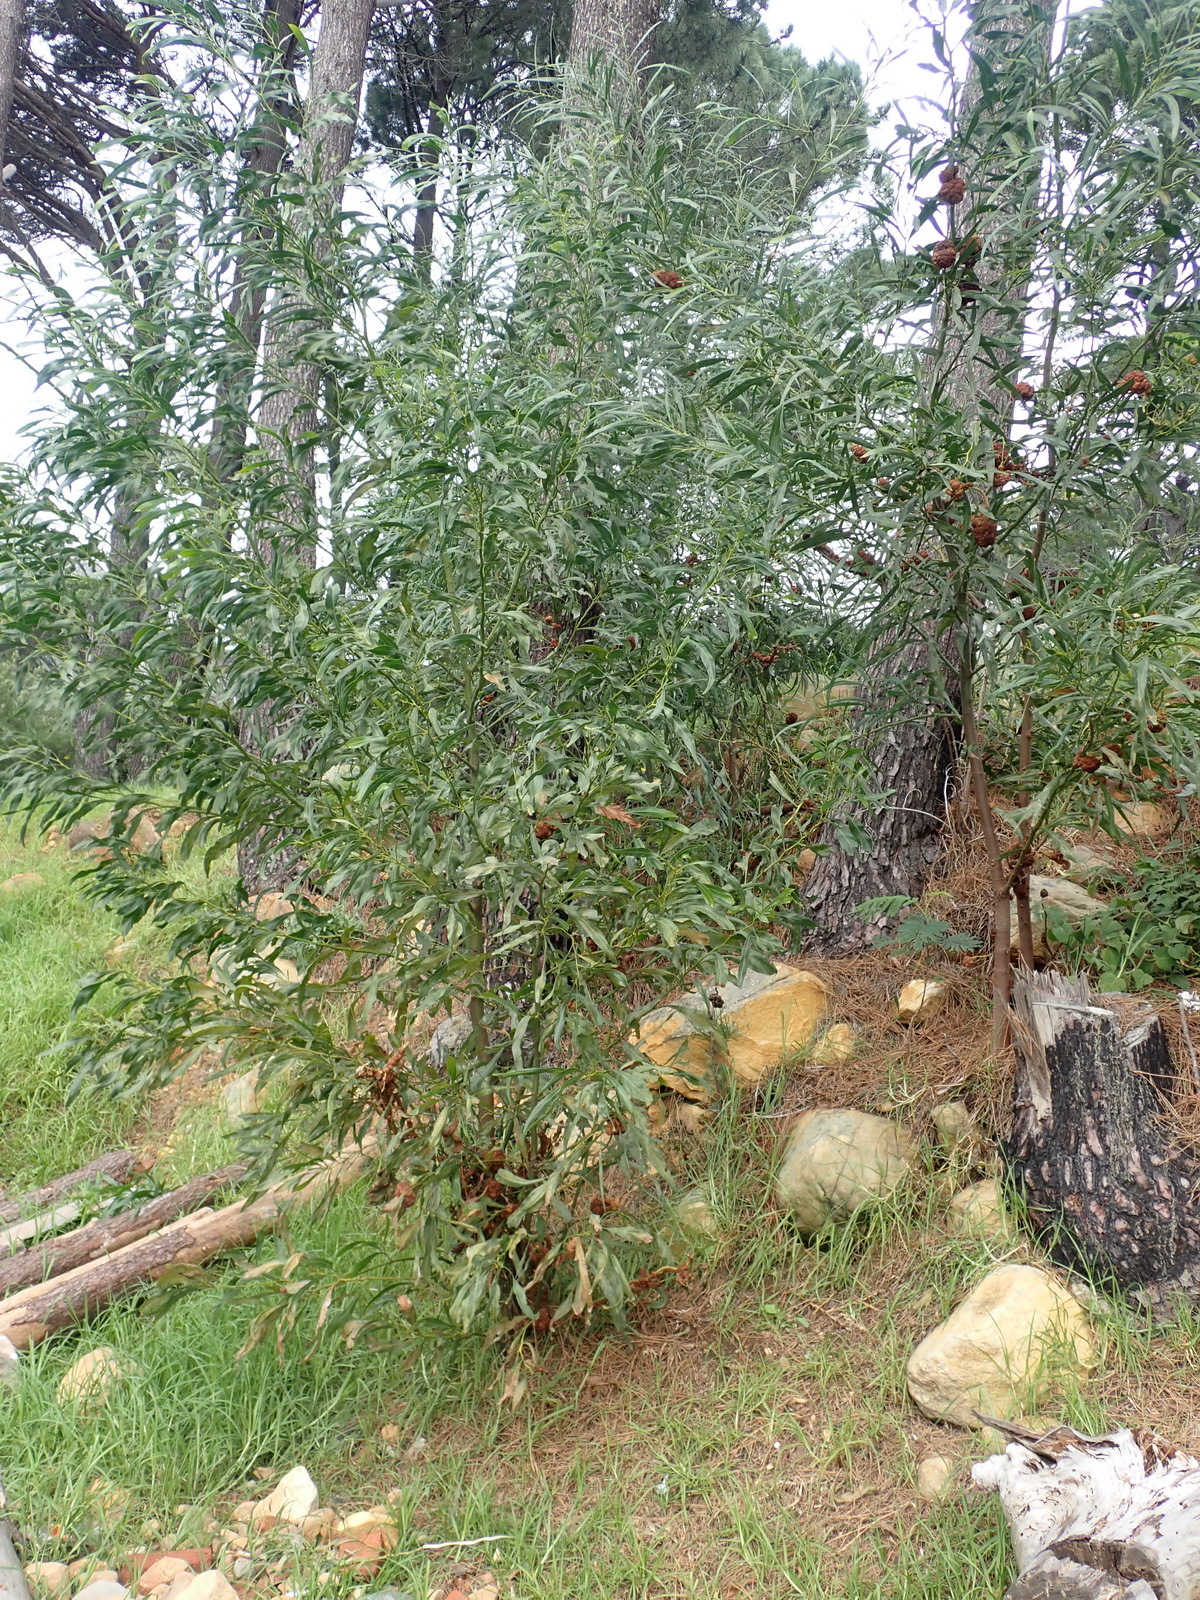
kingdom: Plantae
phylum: Tracheophyta
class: Magnoliopsida
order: Fabales
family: Fabaceae
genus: Acacia
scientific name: Acacia saligna
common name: Orange wattle
